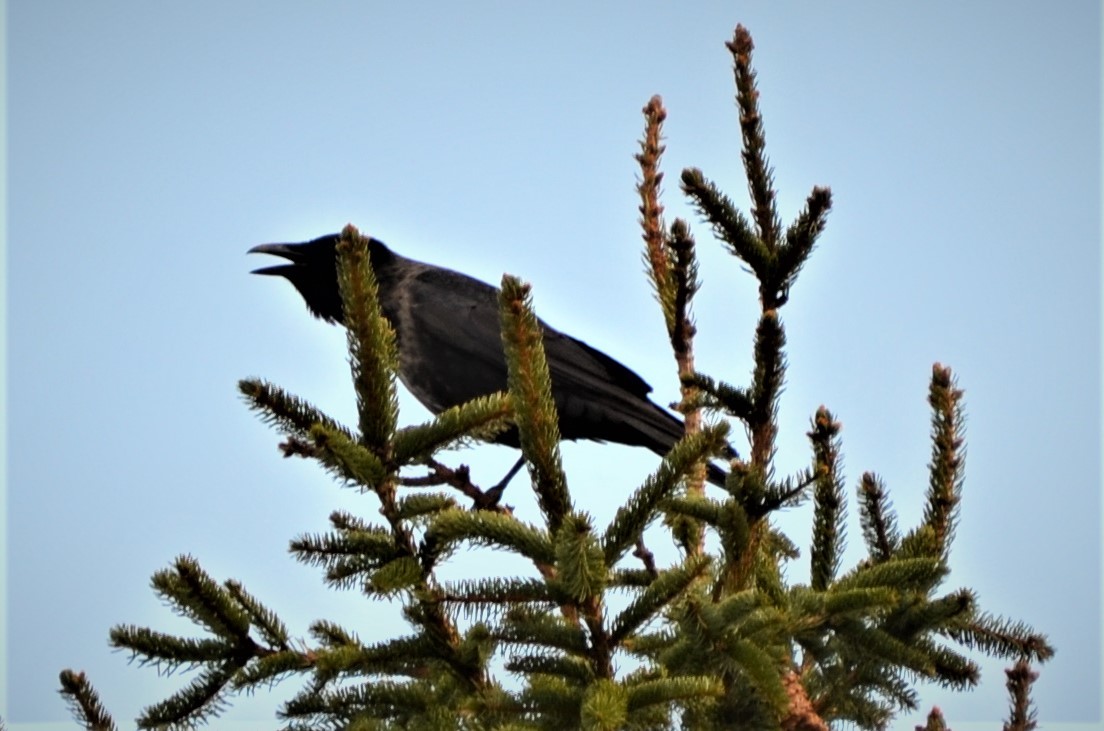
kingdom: Animalia
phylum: Chordata
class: Aves
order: Passeriformes
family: Corvidae
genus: Corvus
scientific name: Corvus
